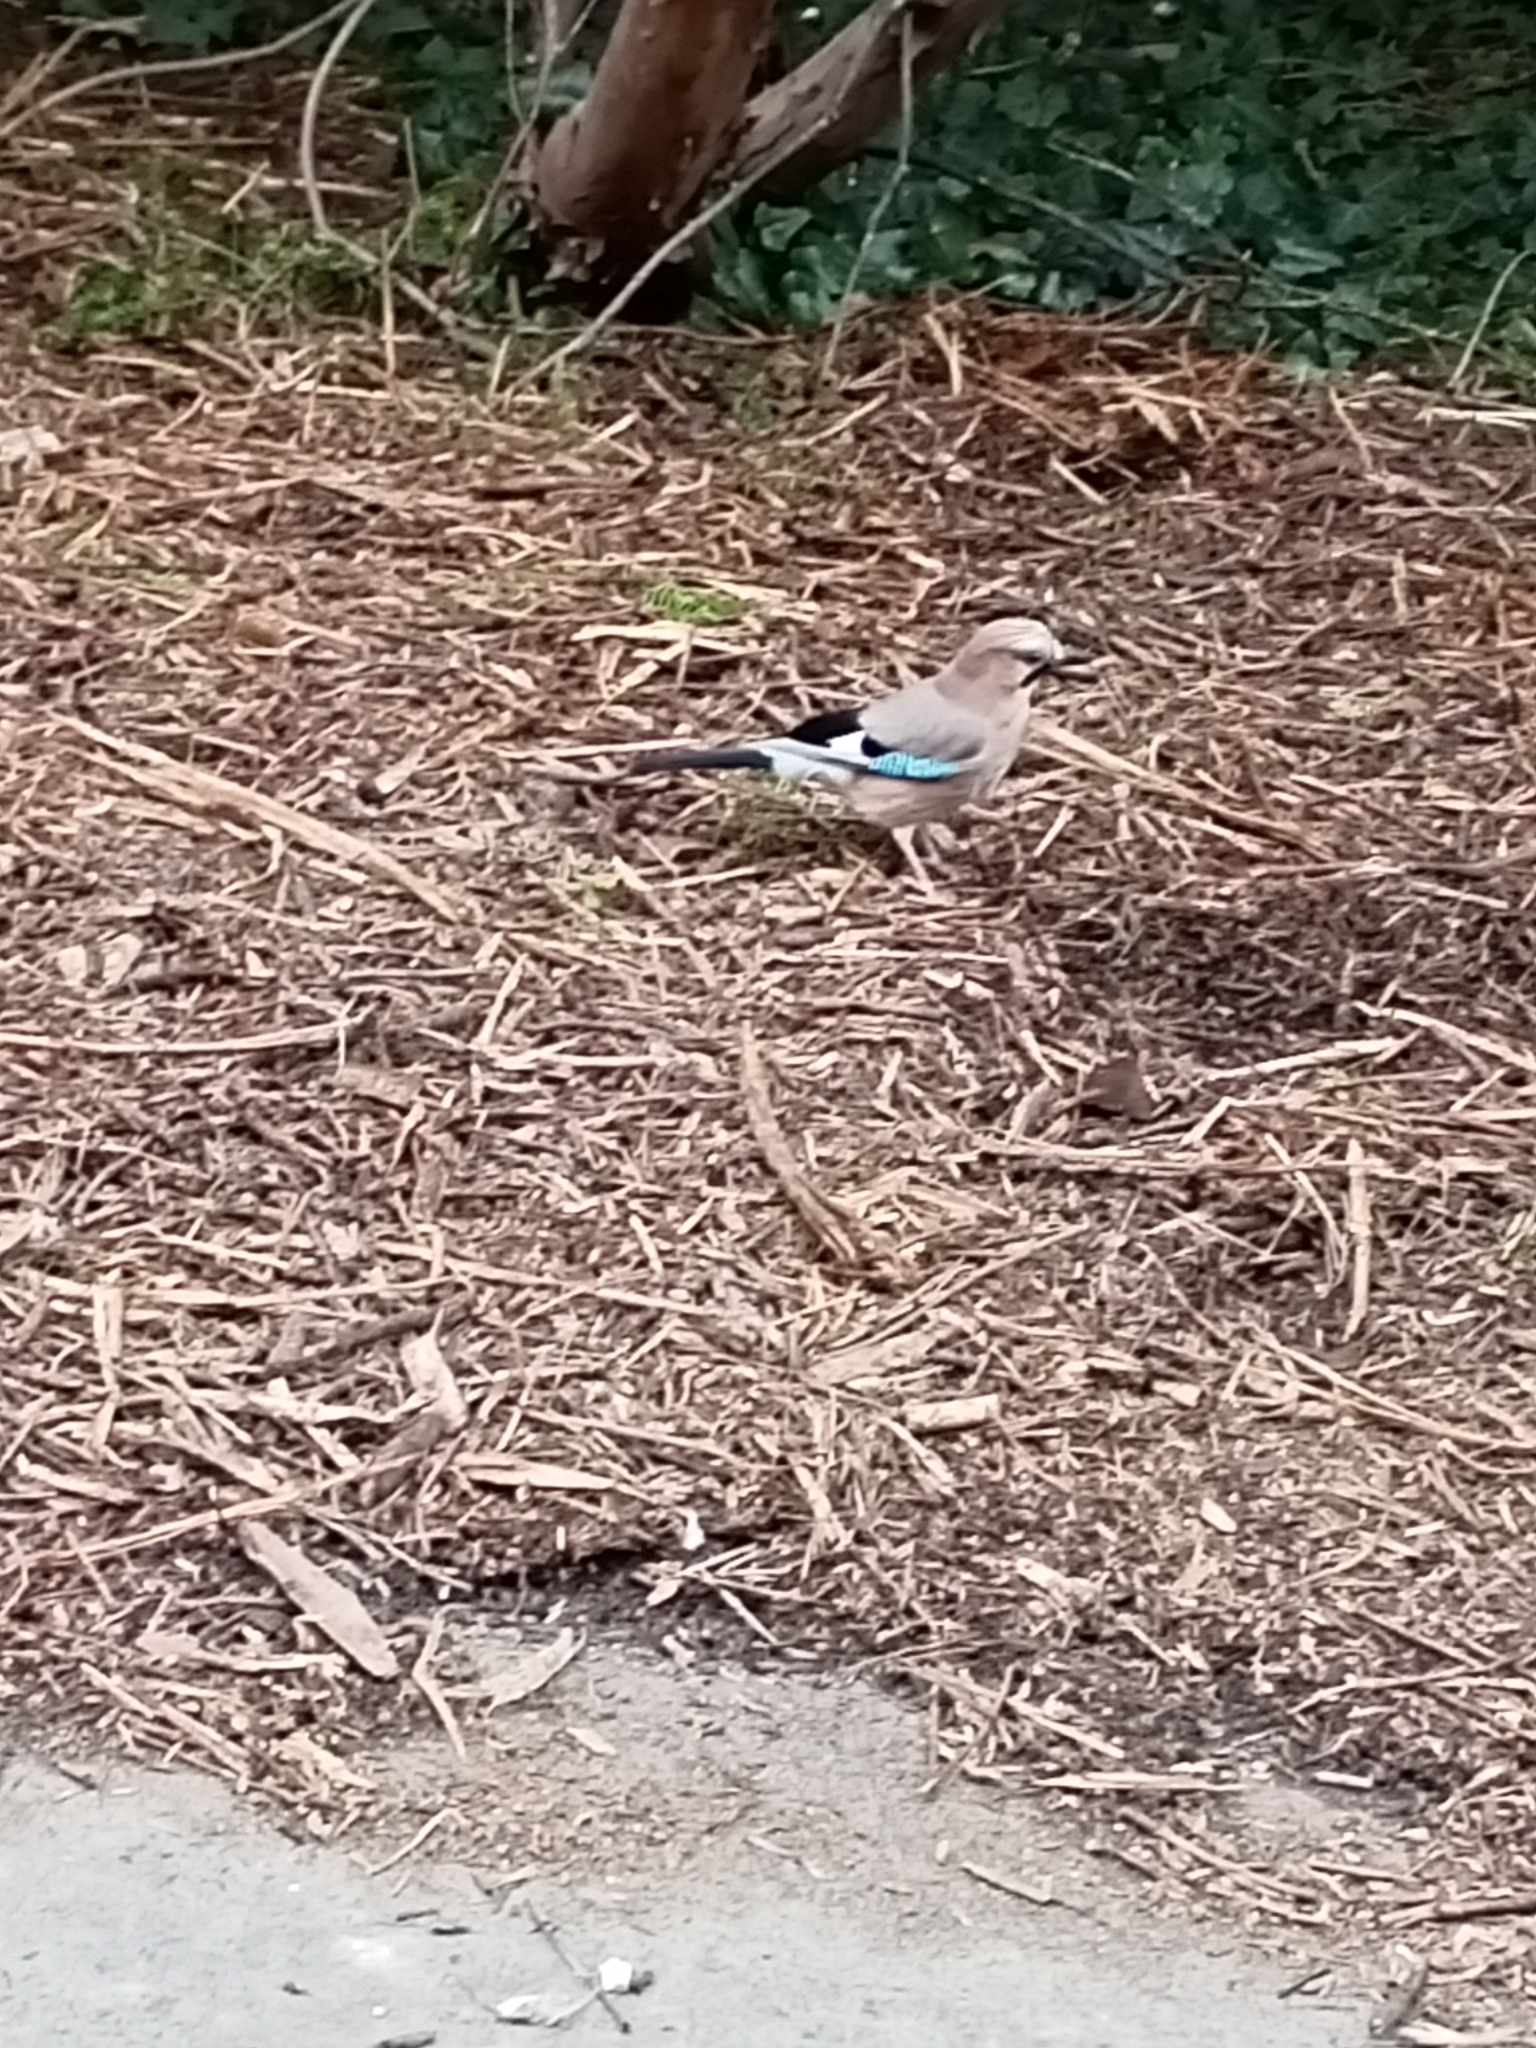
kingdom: Animalia
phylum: Chordata
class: Aves
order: Passeriformes
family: Corvidae
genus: Garrulus
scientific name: Garrulus glandarius
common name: Eurasian jay
